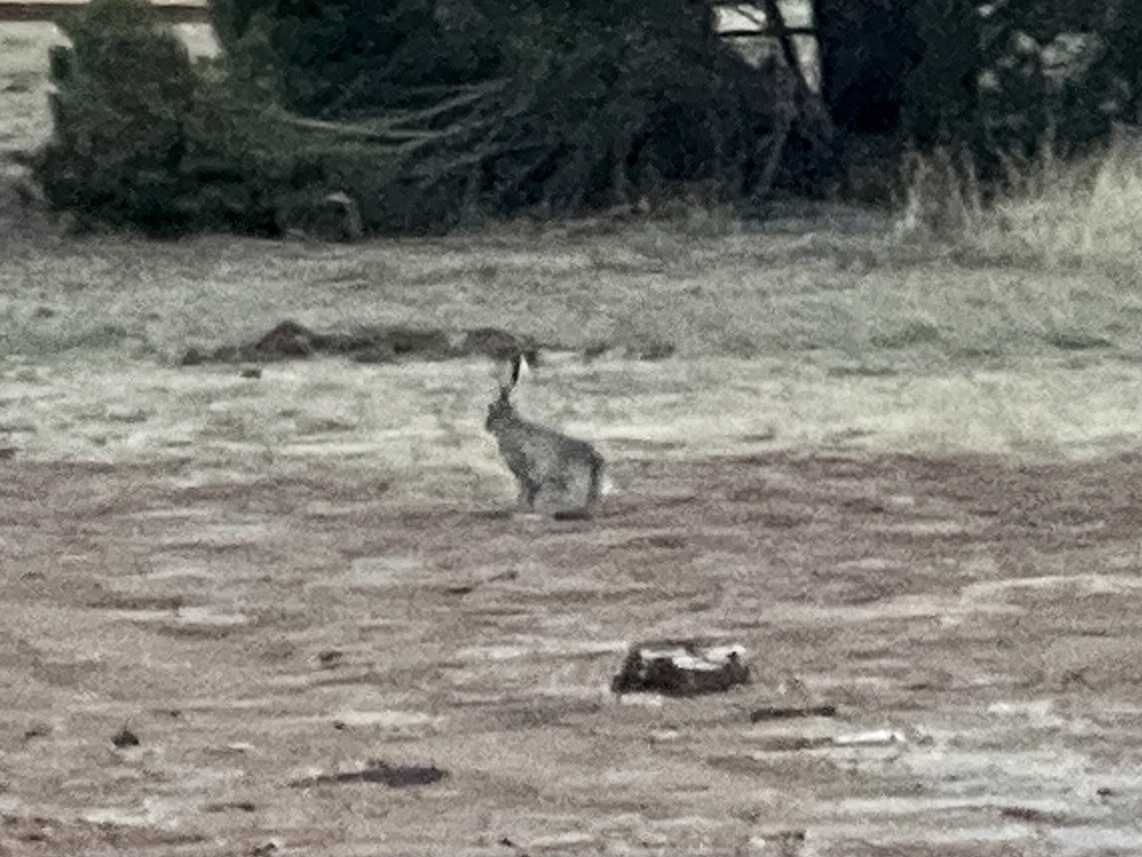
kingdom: Animalia
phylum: Chordata
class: Mammalia
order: Lagomorpha
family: Leporidae
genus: Lepus
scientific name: Lepus californicus
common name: Black-tailed jackrabbit
